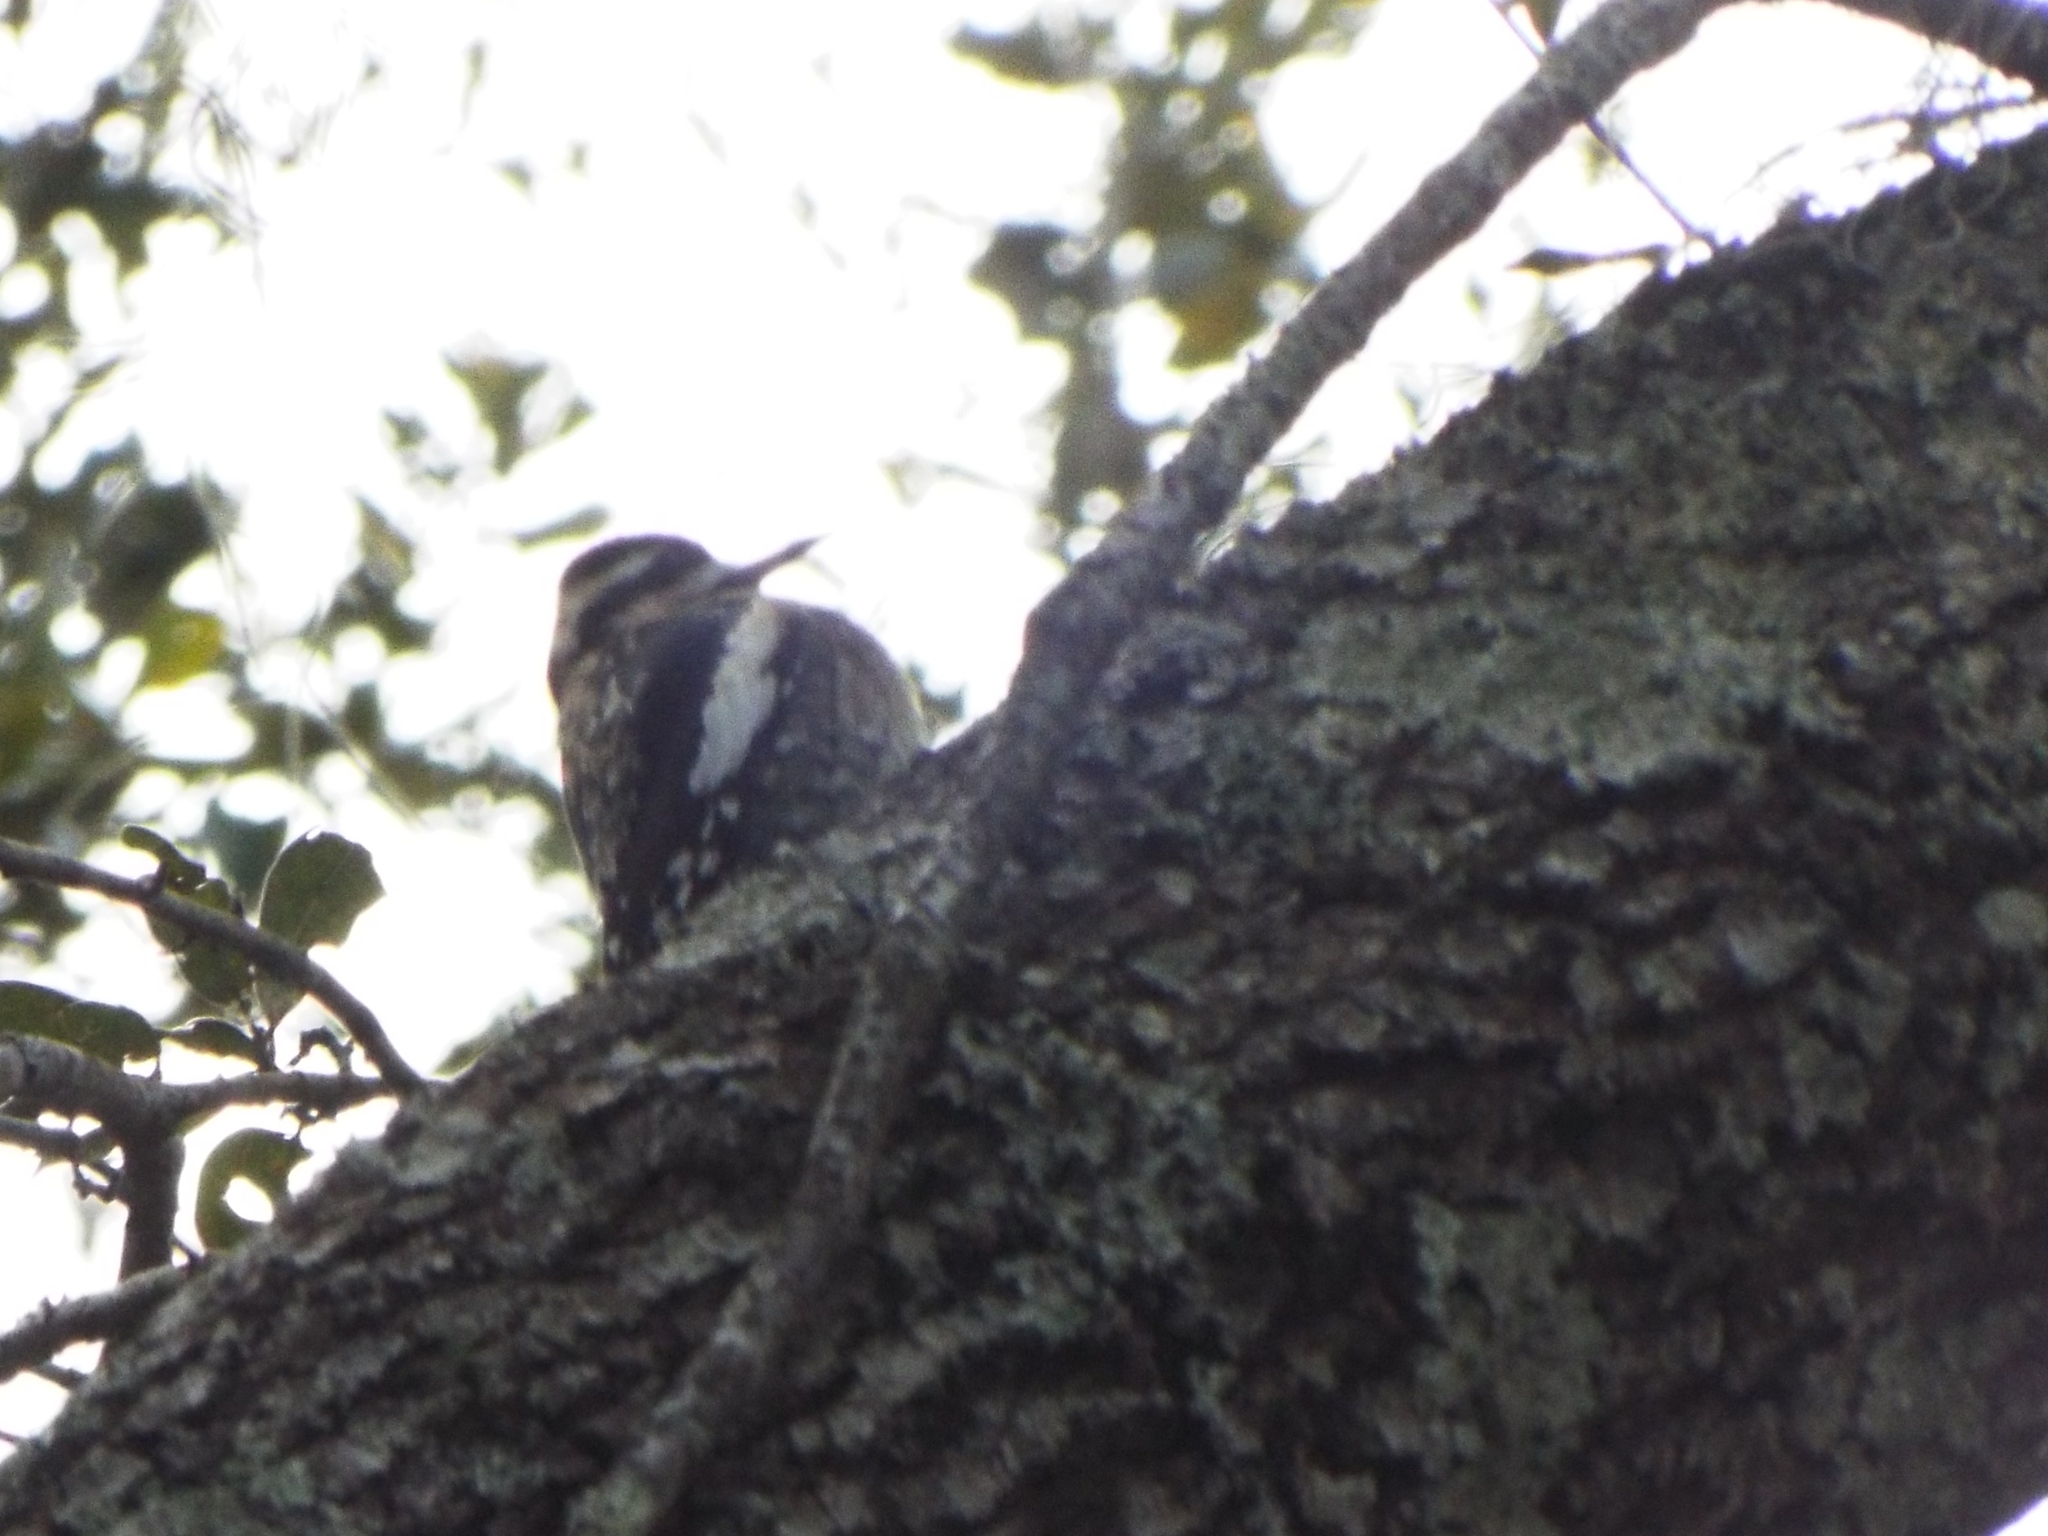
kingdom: Animalia
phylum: Chordata
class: Aves
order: Piciformes
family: Picidae
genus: Sphyrapicus
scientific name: Sphyrapicus varius
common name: Yellow-bellied sapsucker
